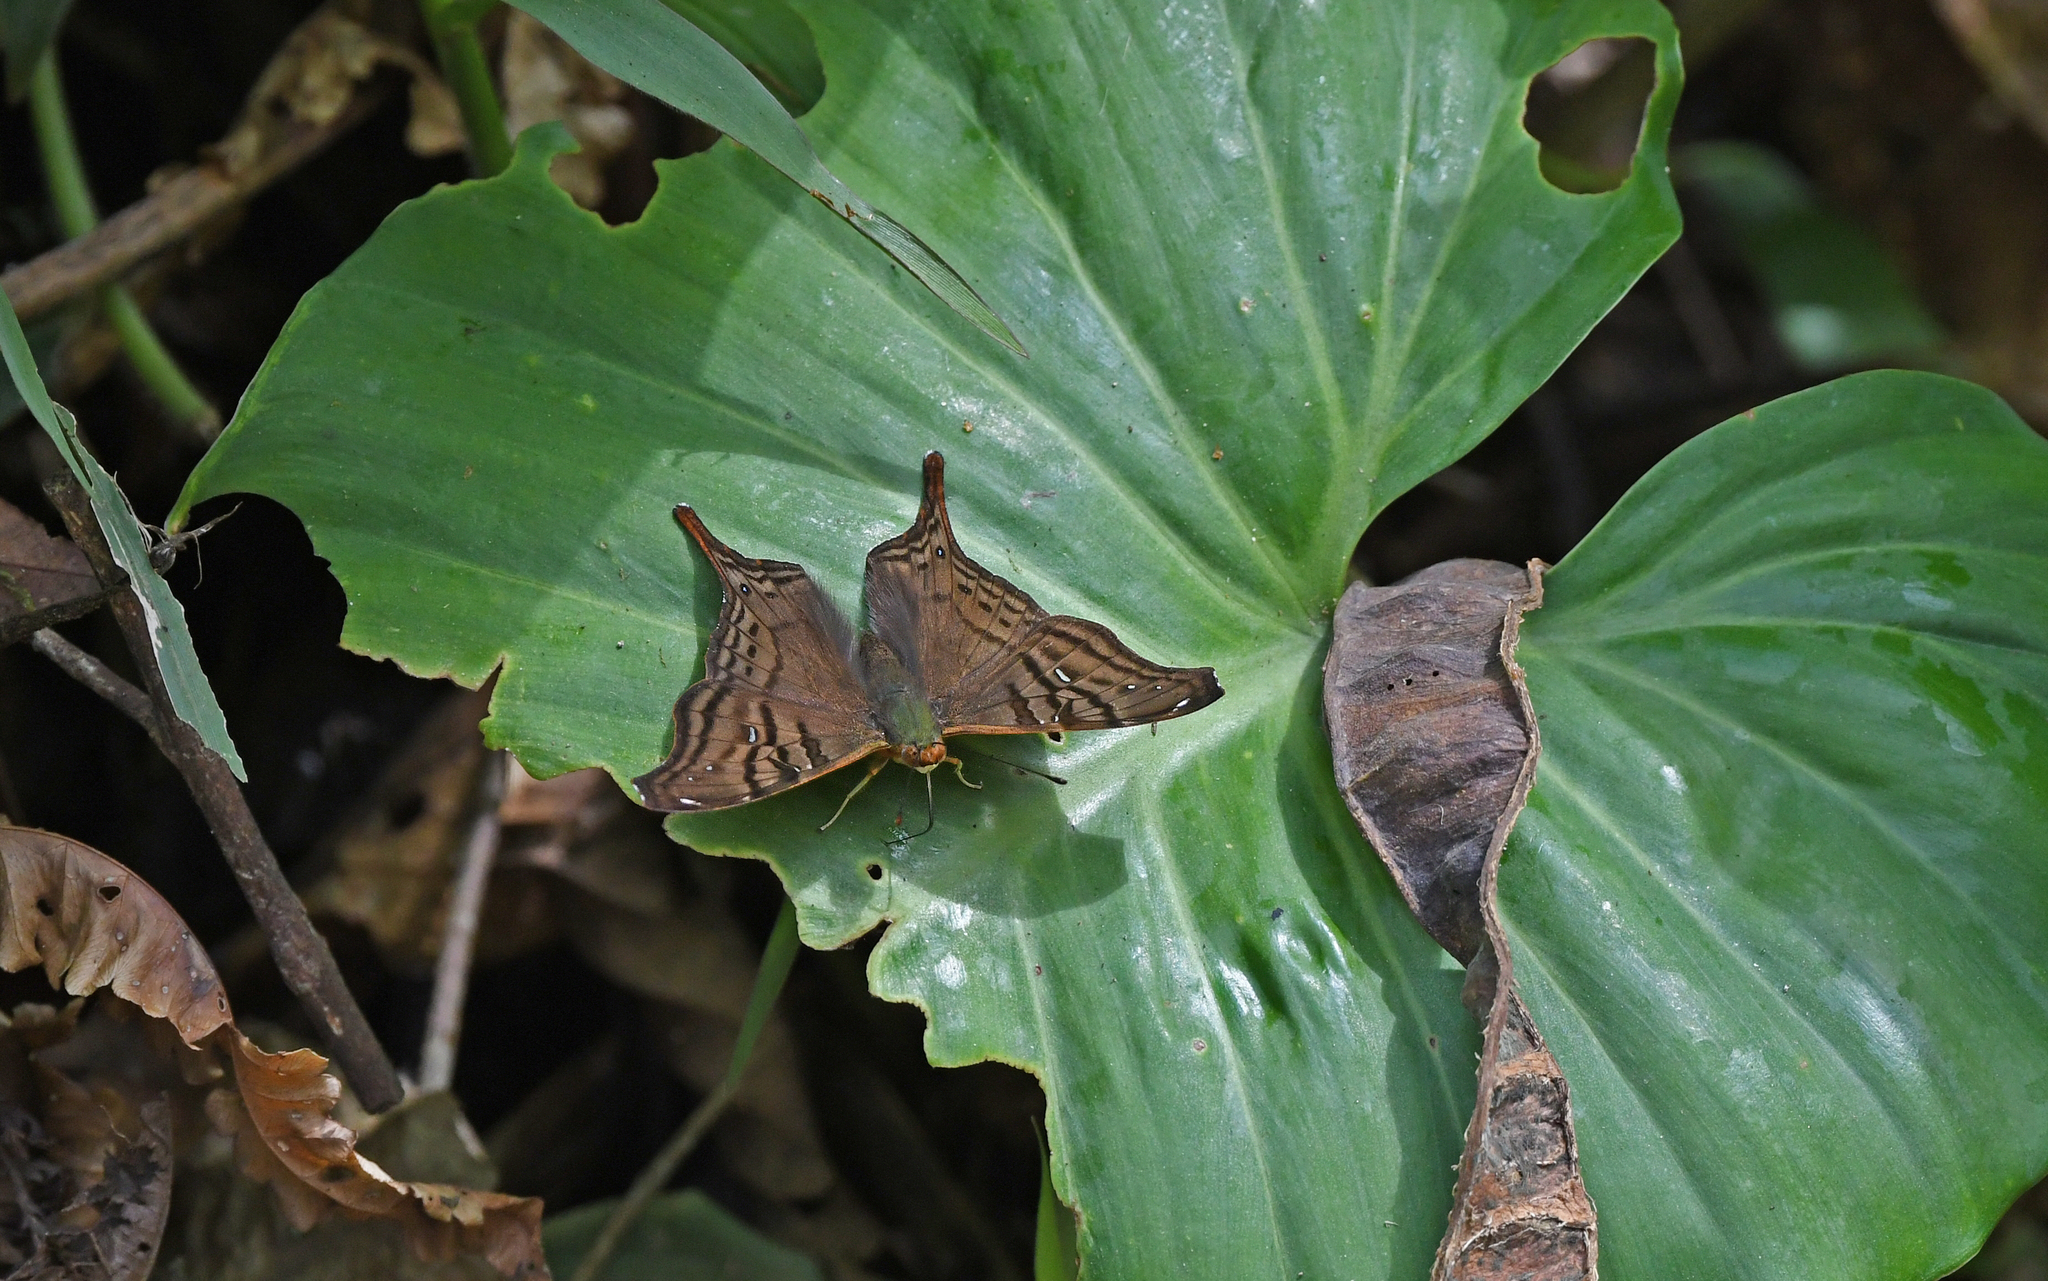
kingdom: Animalia
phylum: Arthropoda
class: Insecta
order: Lepidoptera
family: Nymphalidae
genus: Hypanartia
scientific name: Hypanartia dione
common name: Banded mapwing
